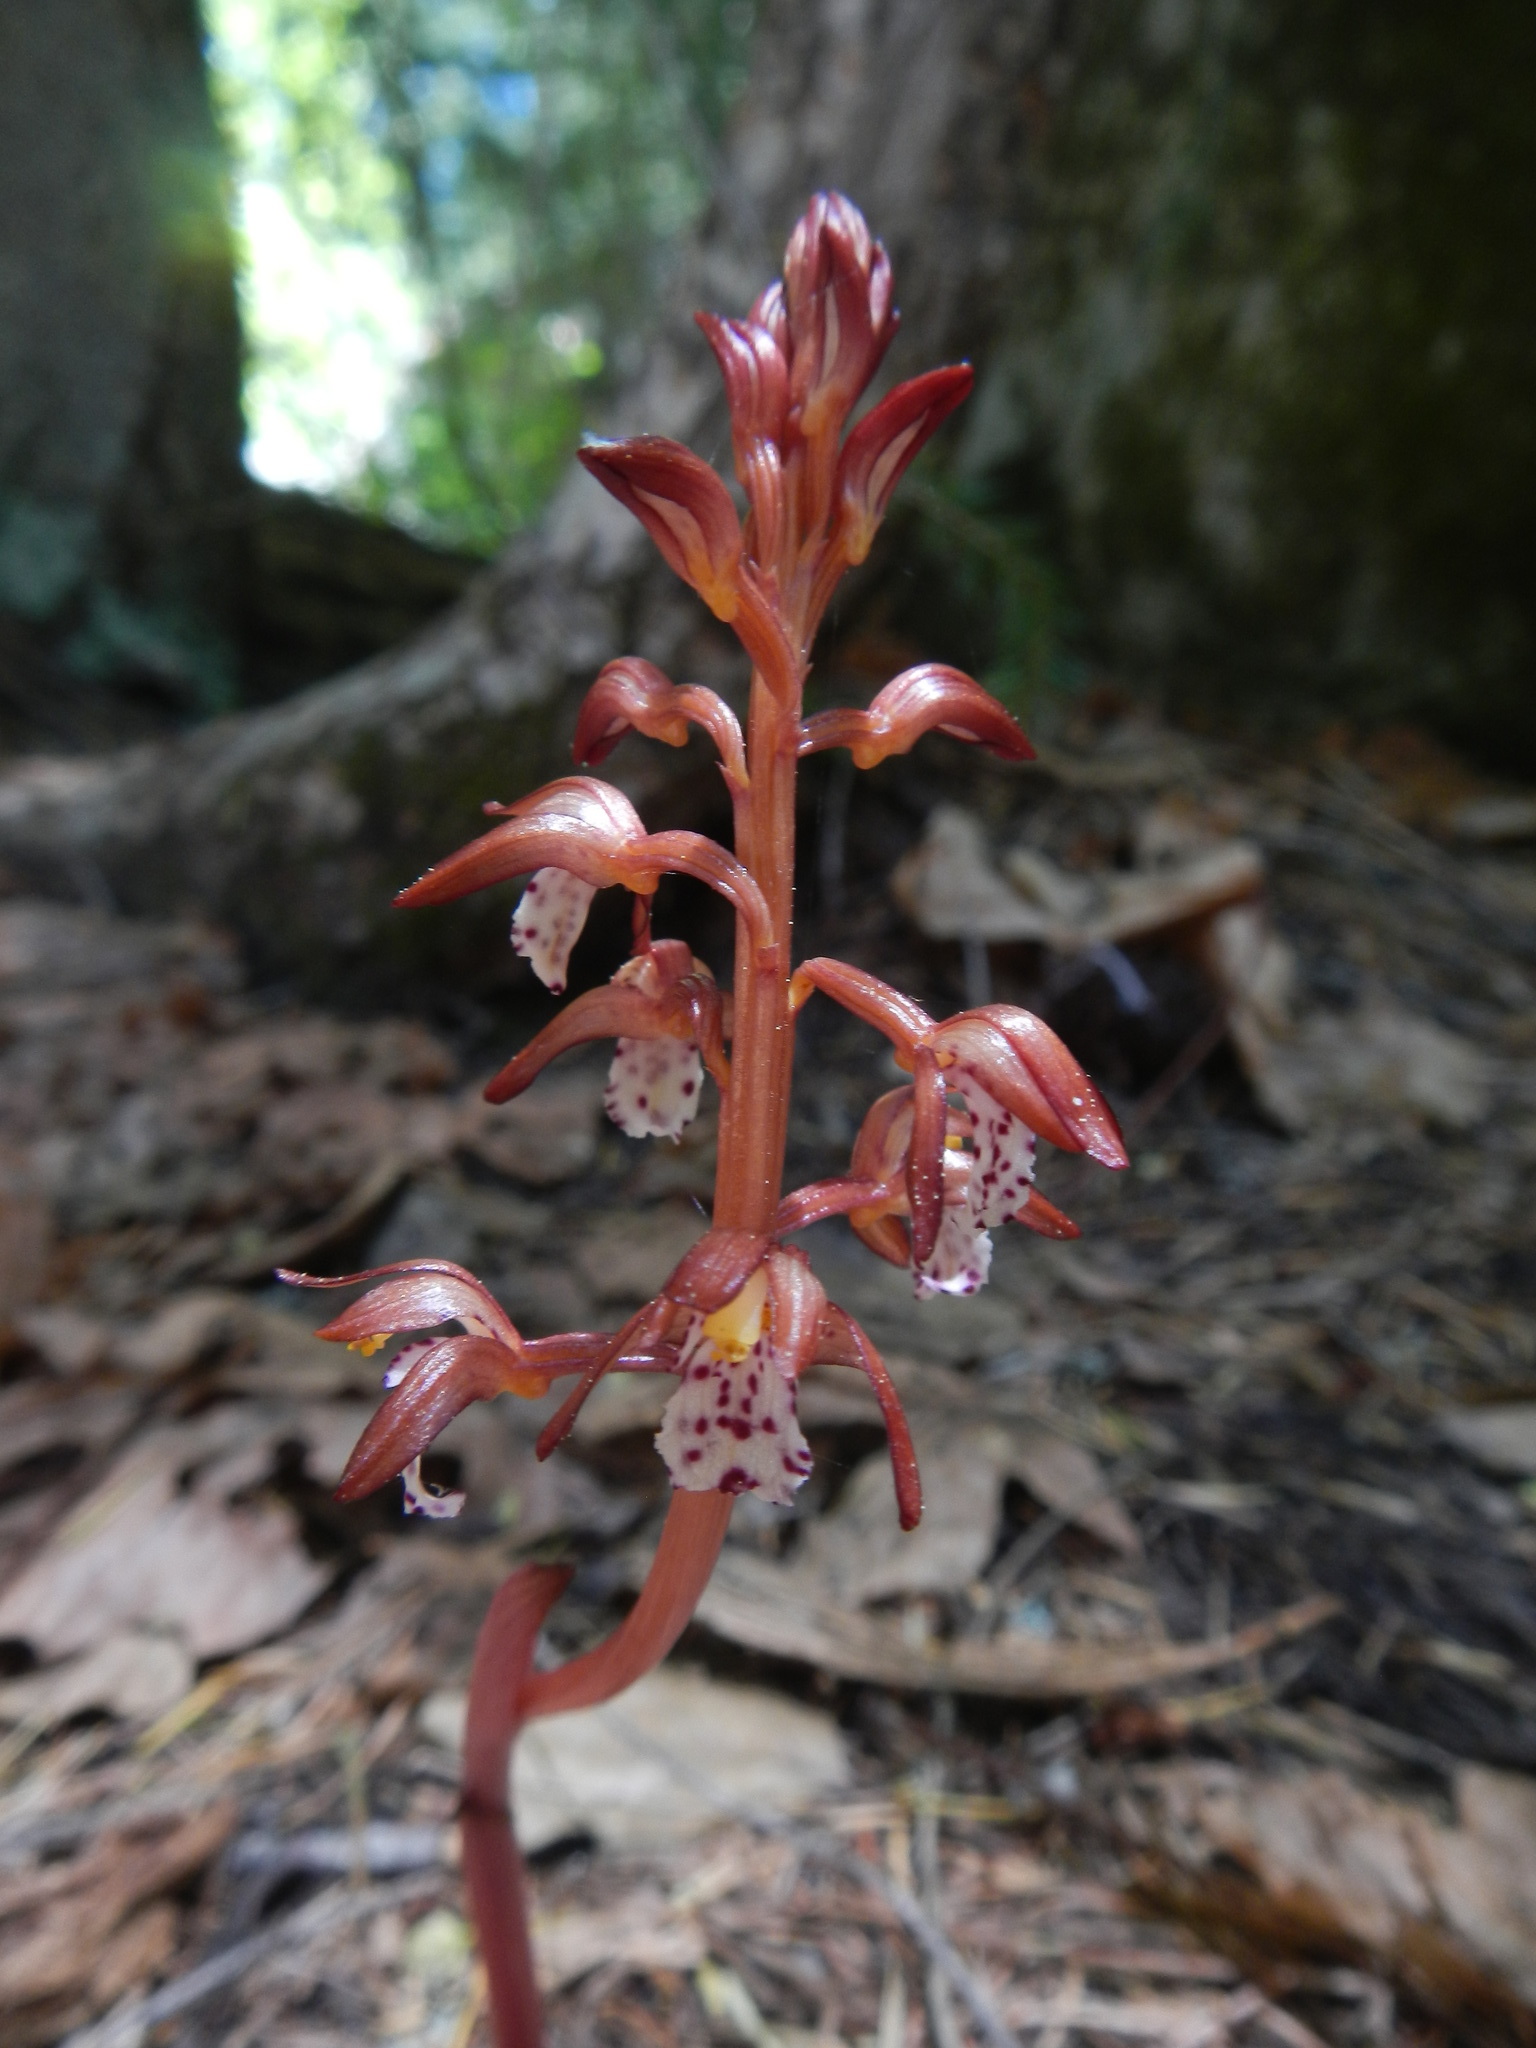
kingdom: Plantae
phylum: Tracheophyta
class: Liliopsida
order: Asparagales
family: Orchidaceae
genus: Corallorhiza
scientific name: Corallorhiza maculata
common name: Spotted coralroot
